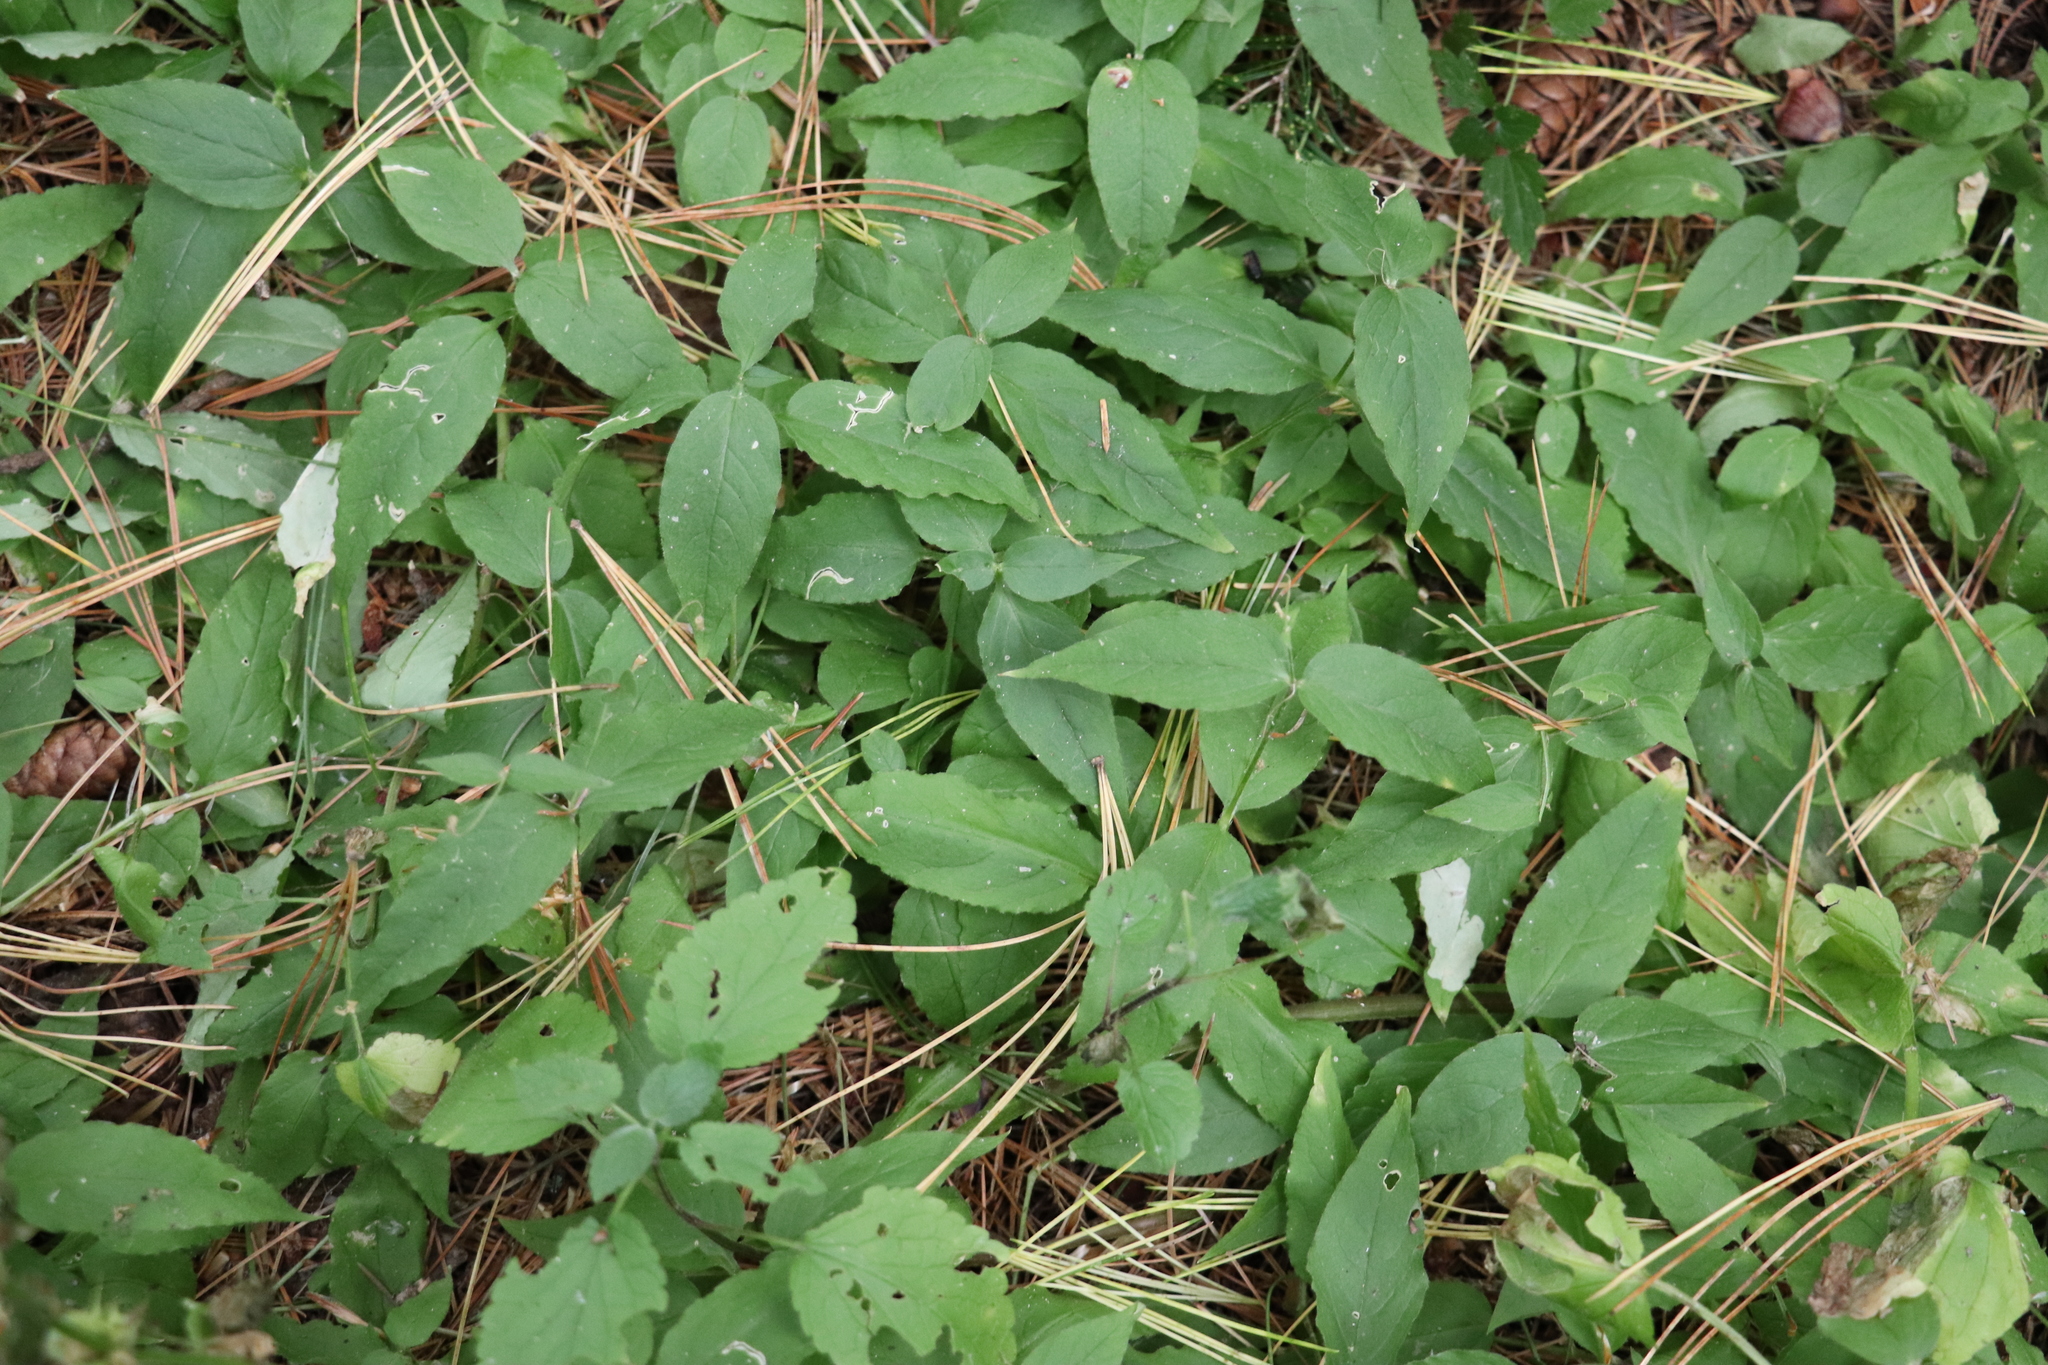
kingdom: Plantae
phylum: Tracheophyta
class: Magnoliopsida
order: Caryophyllales
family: Caryophyllaceae
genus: Stellaria
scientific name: Stellaria bungeana
